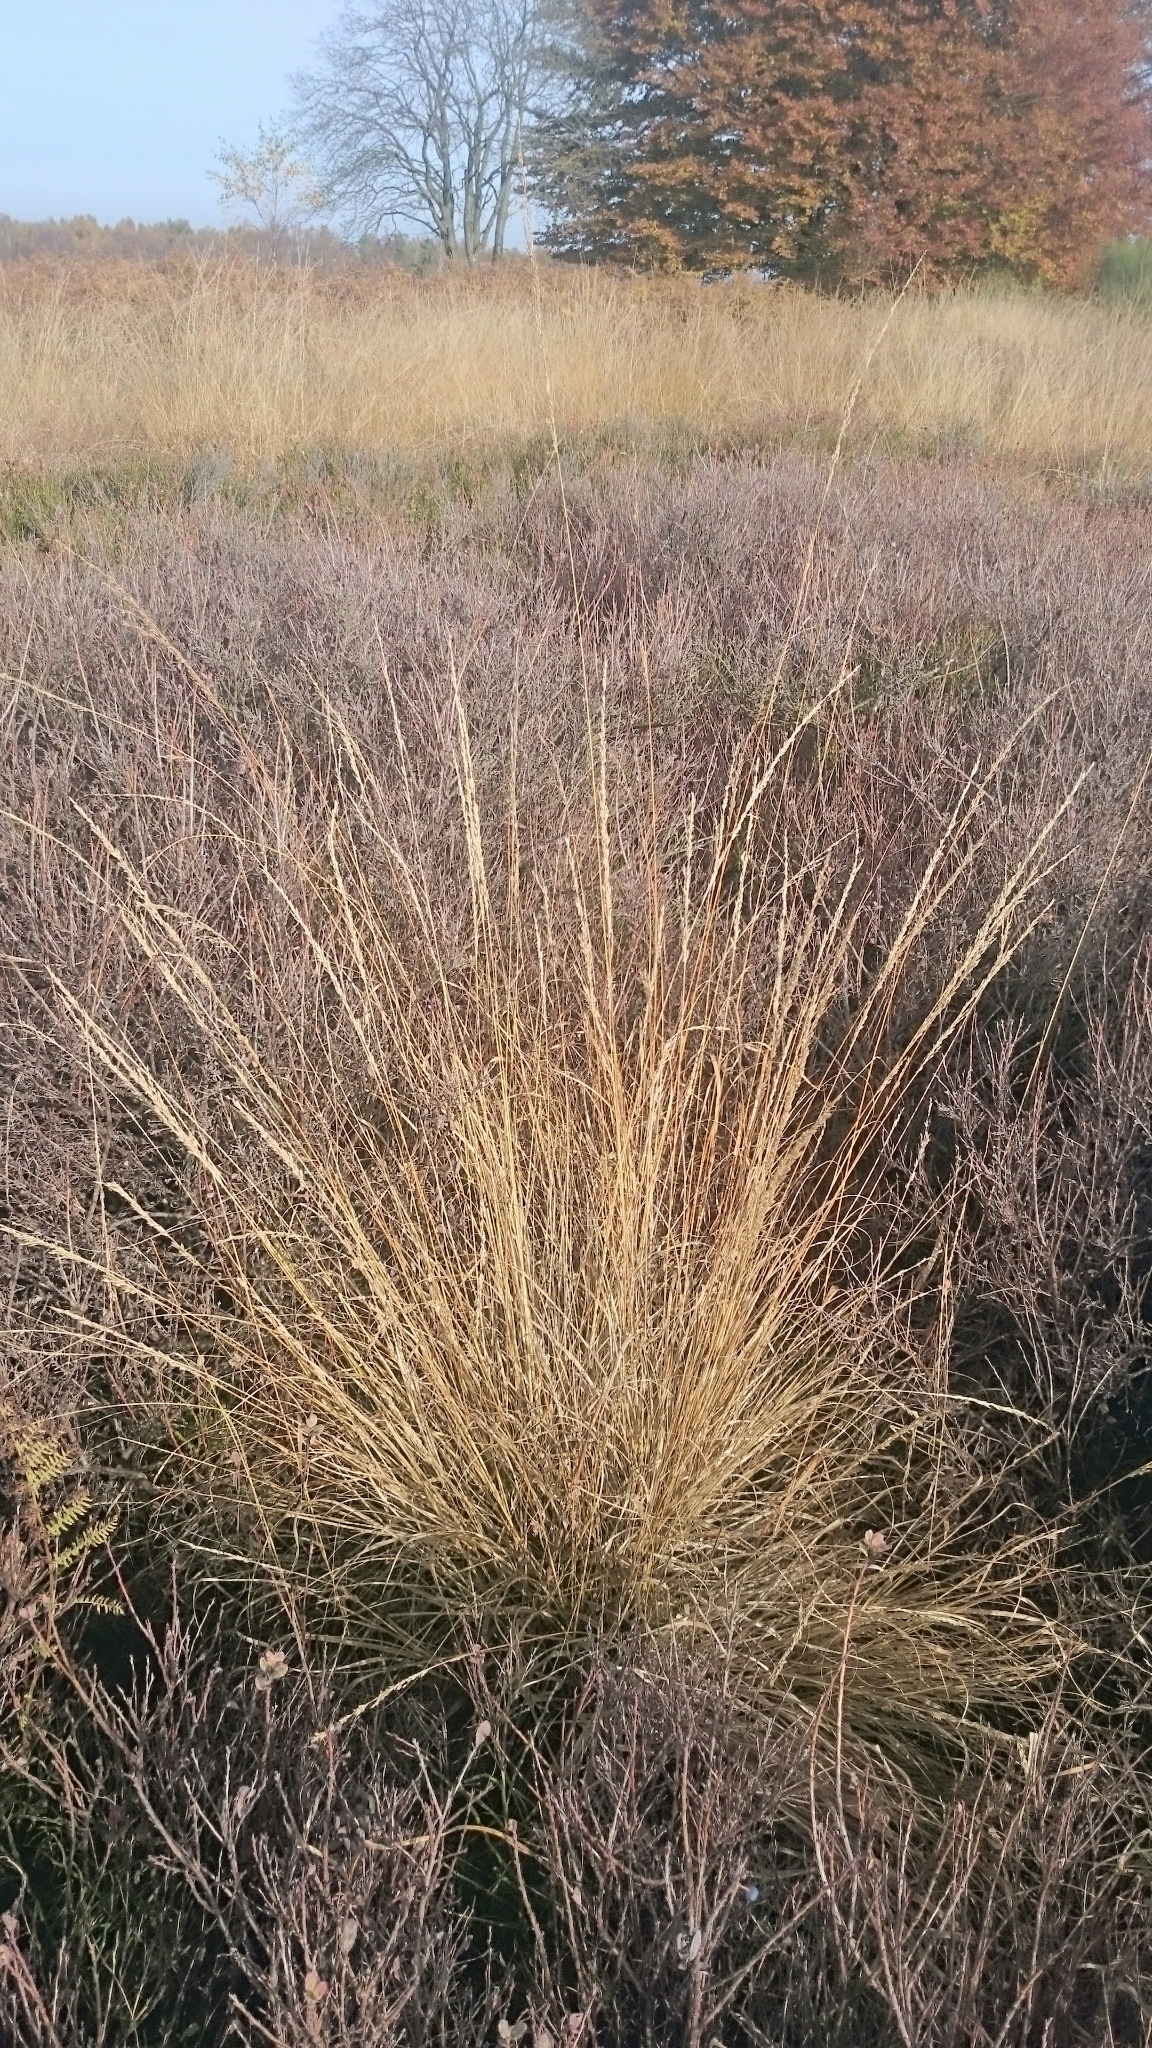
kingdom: Plantae
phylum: Tracheophyta
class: Liliopsida
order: Poales
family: Poaceae
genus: Molinia
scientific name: Molinia caerulea
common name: Purple moor-grass
